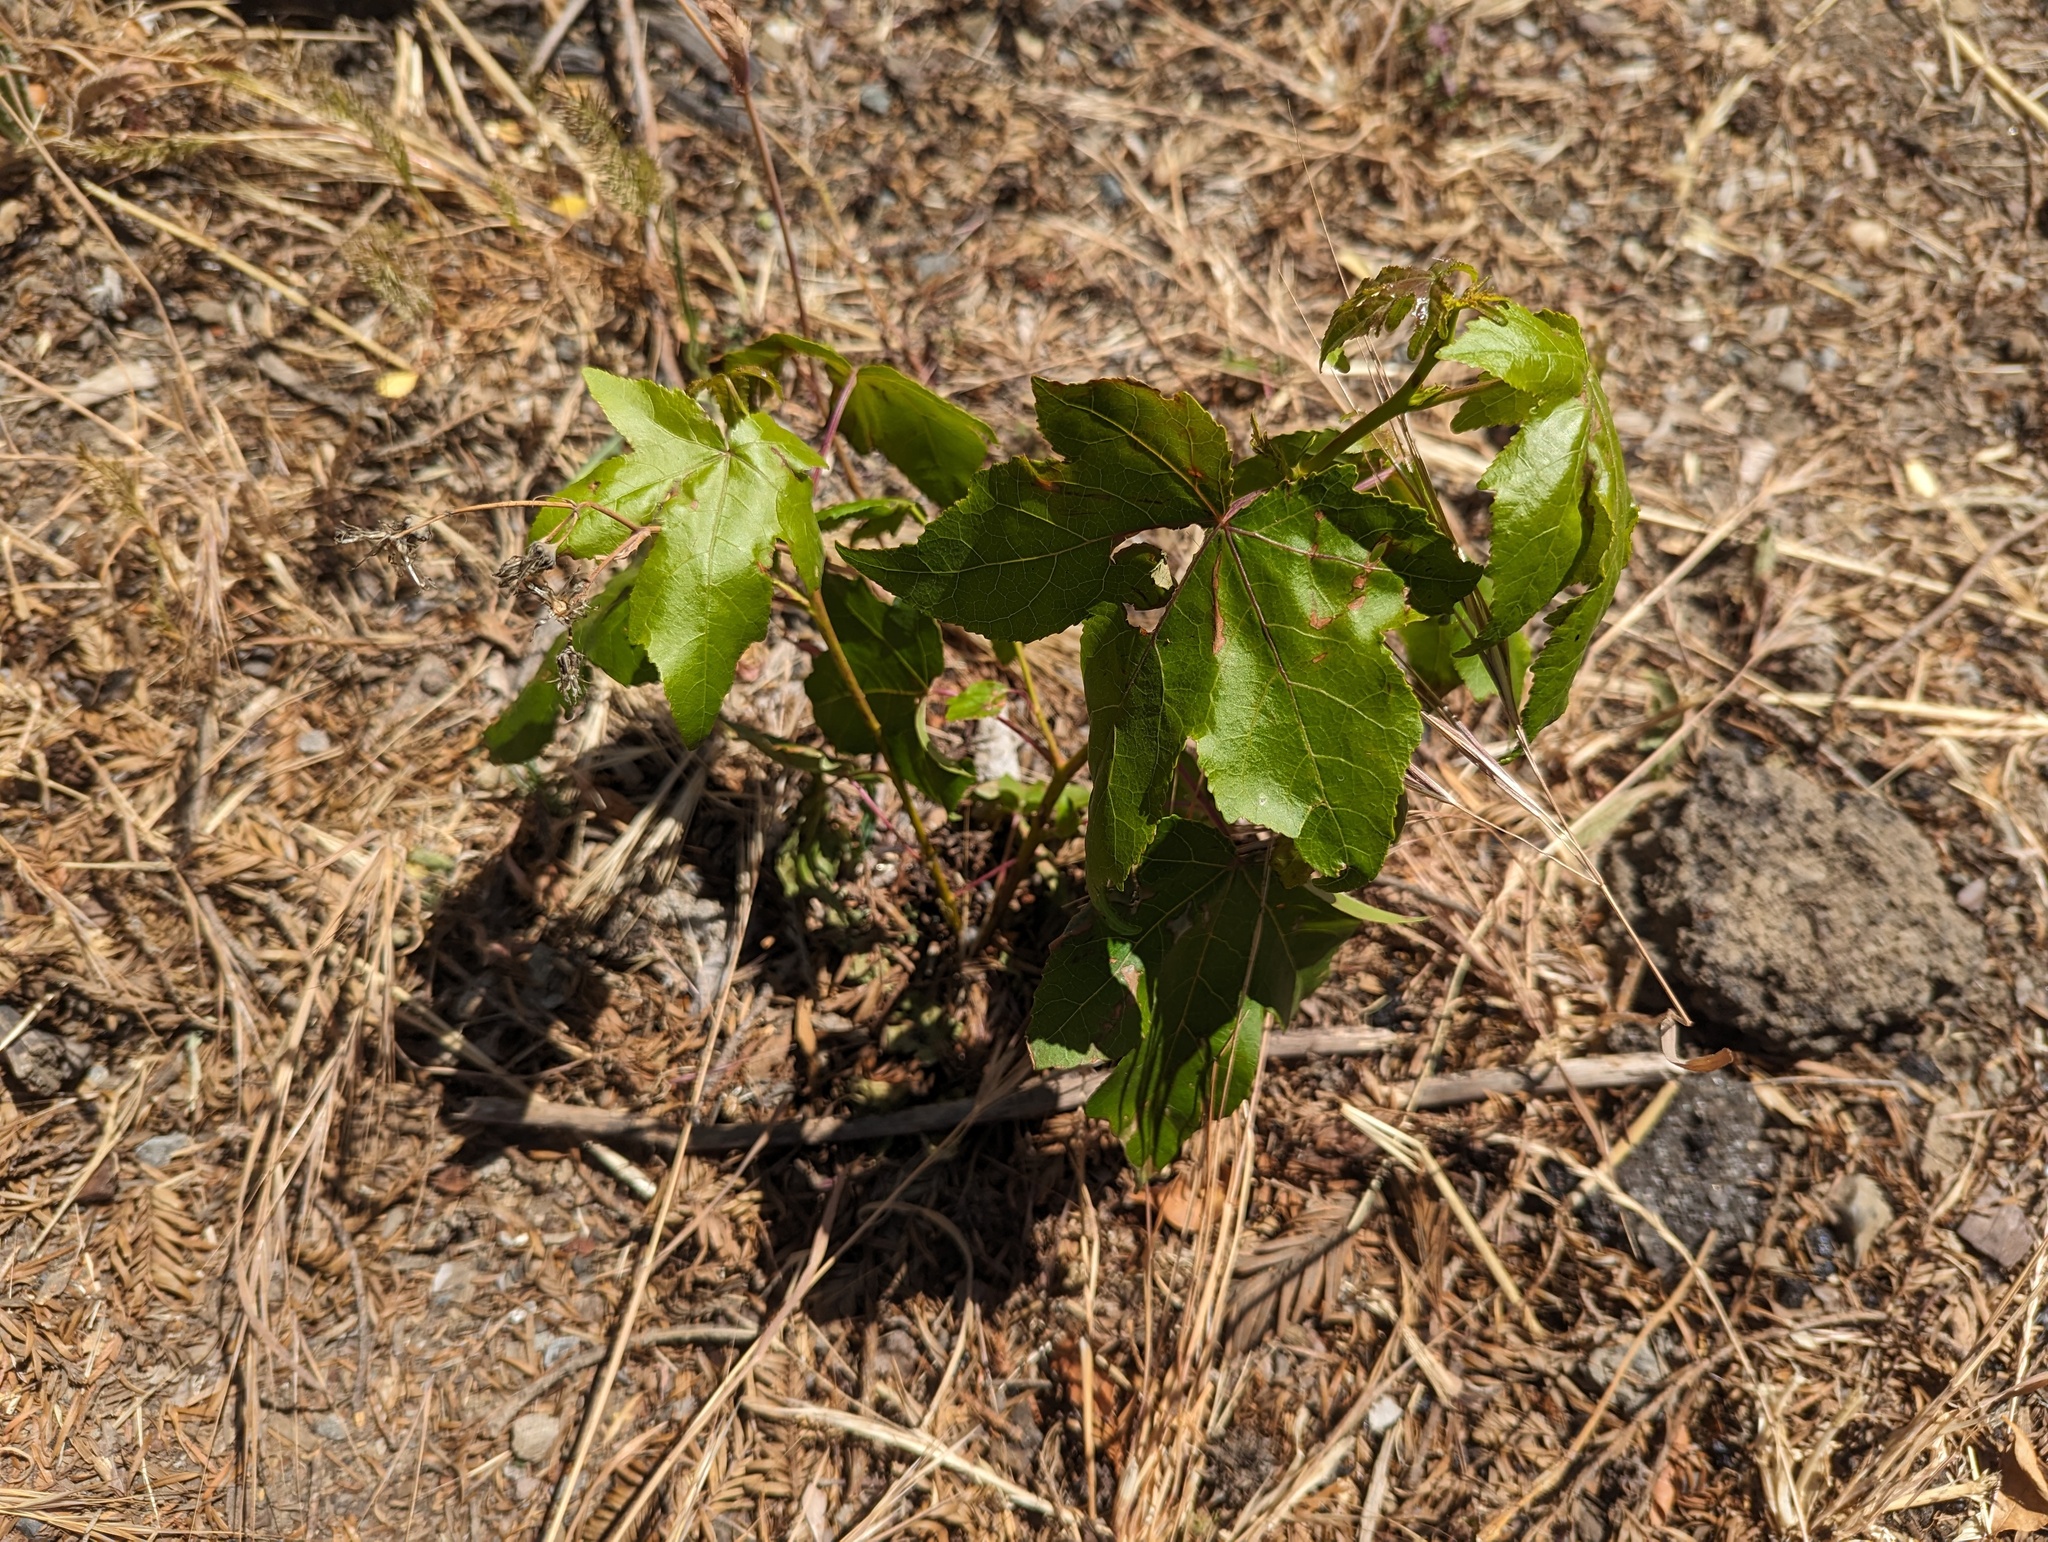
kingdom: Plantae
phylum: Tracheophyta
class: Magnoliopsida
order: Sapindales
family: Sapindaceae
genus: Acer
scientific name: Acer macrophyllum
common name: Oregon maple
